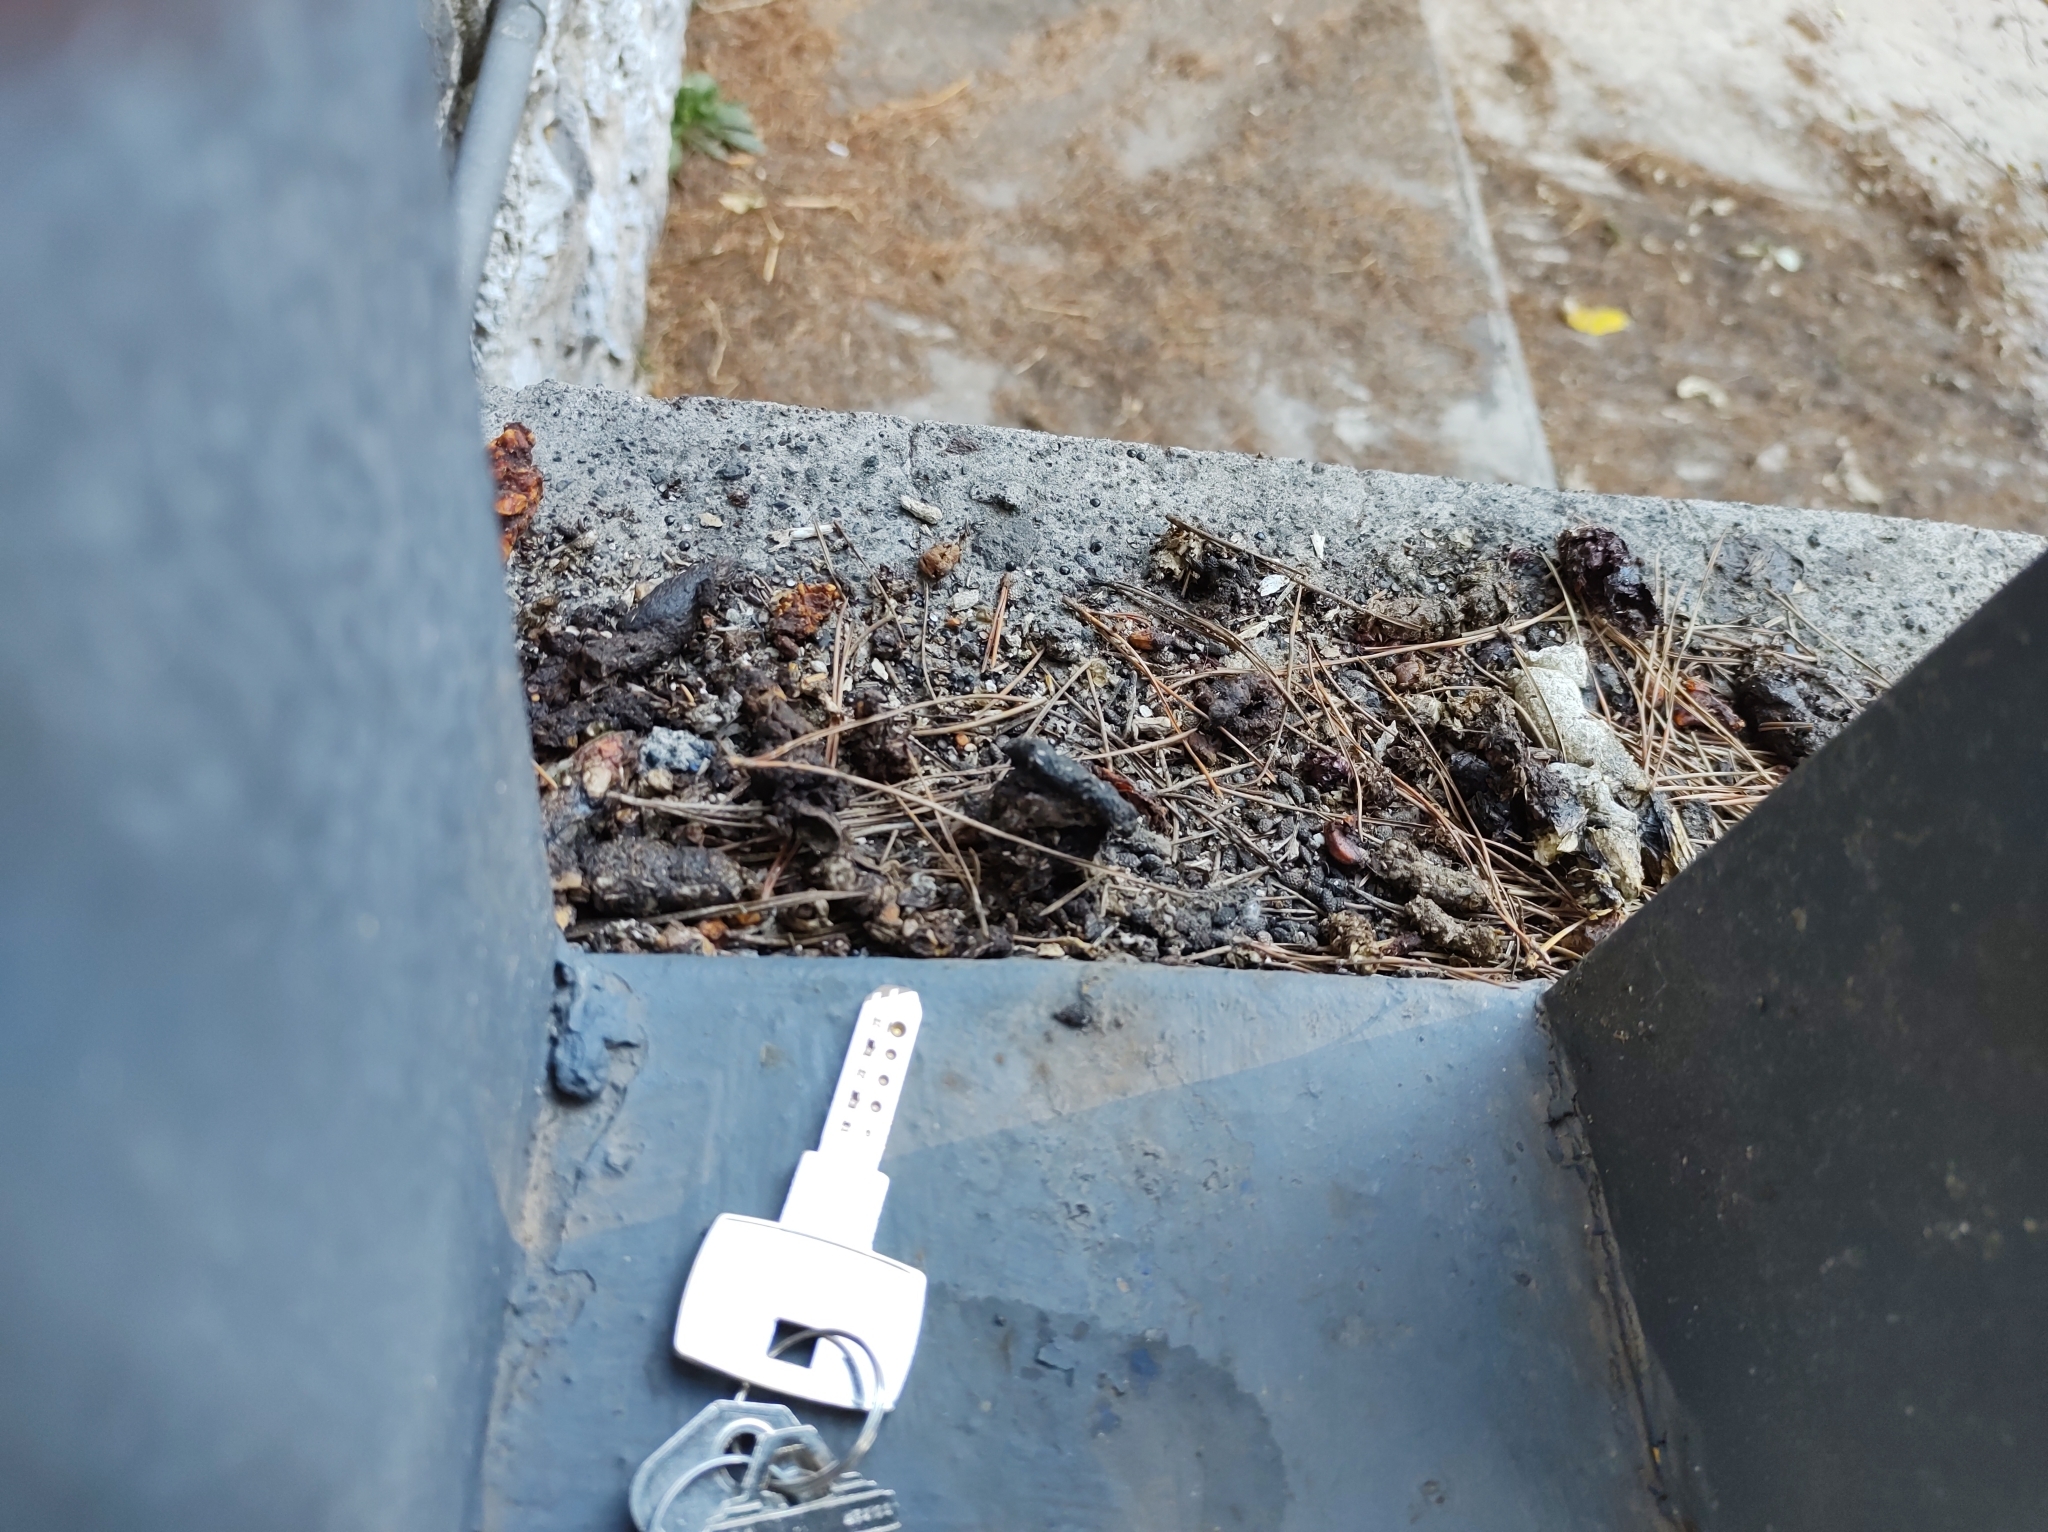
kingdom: Animalia
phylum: Chordata
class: Mammalia
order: Carnivora
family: Procyonidae
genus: Bassariscus
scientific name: Bassariscus astutus
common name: Ringtail
